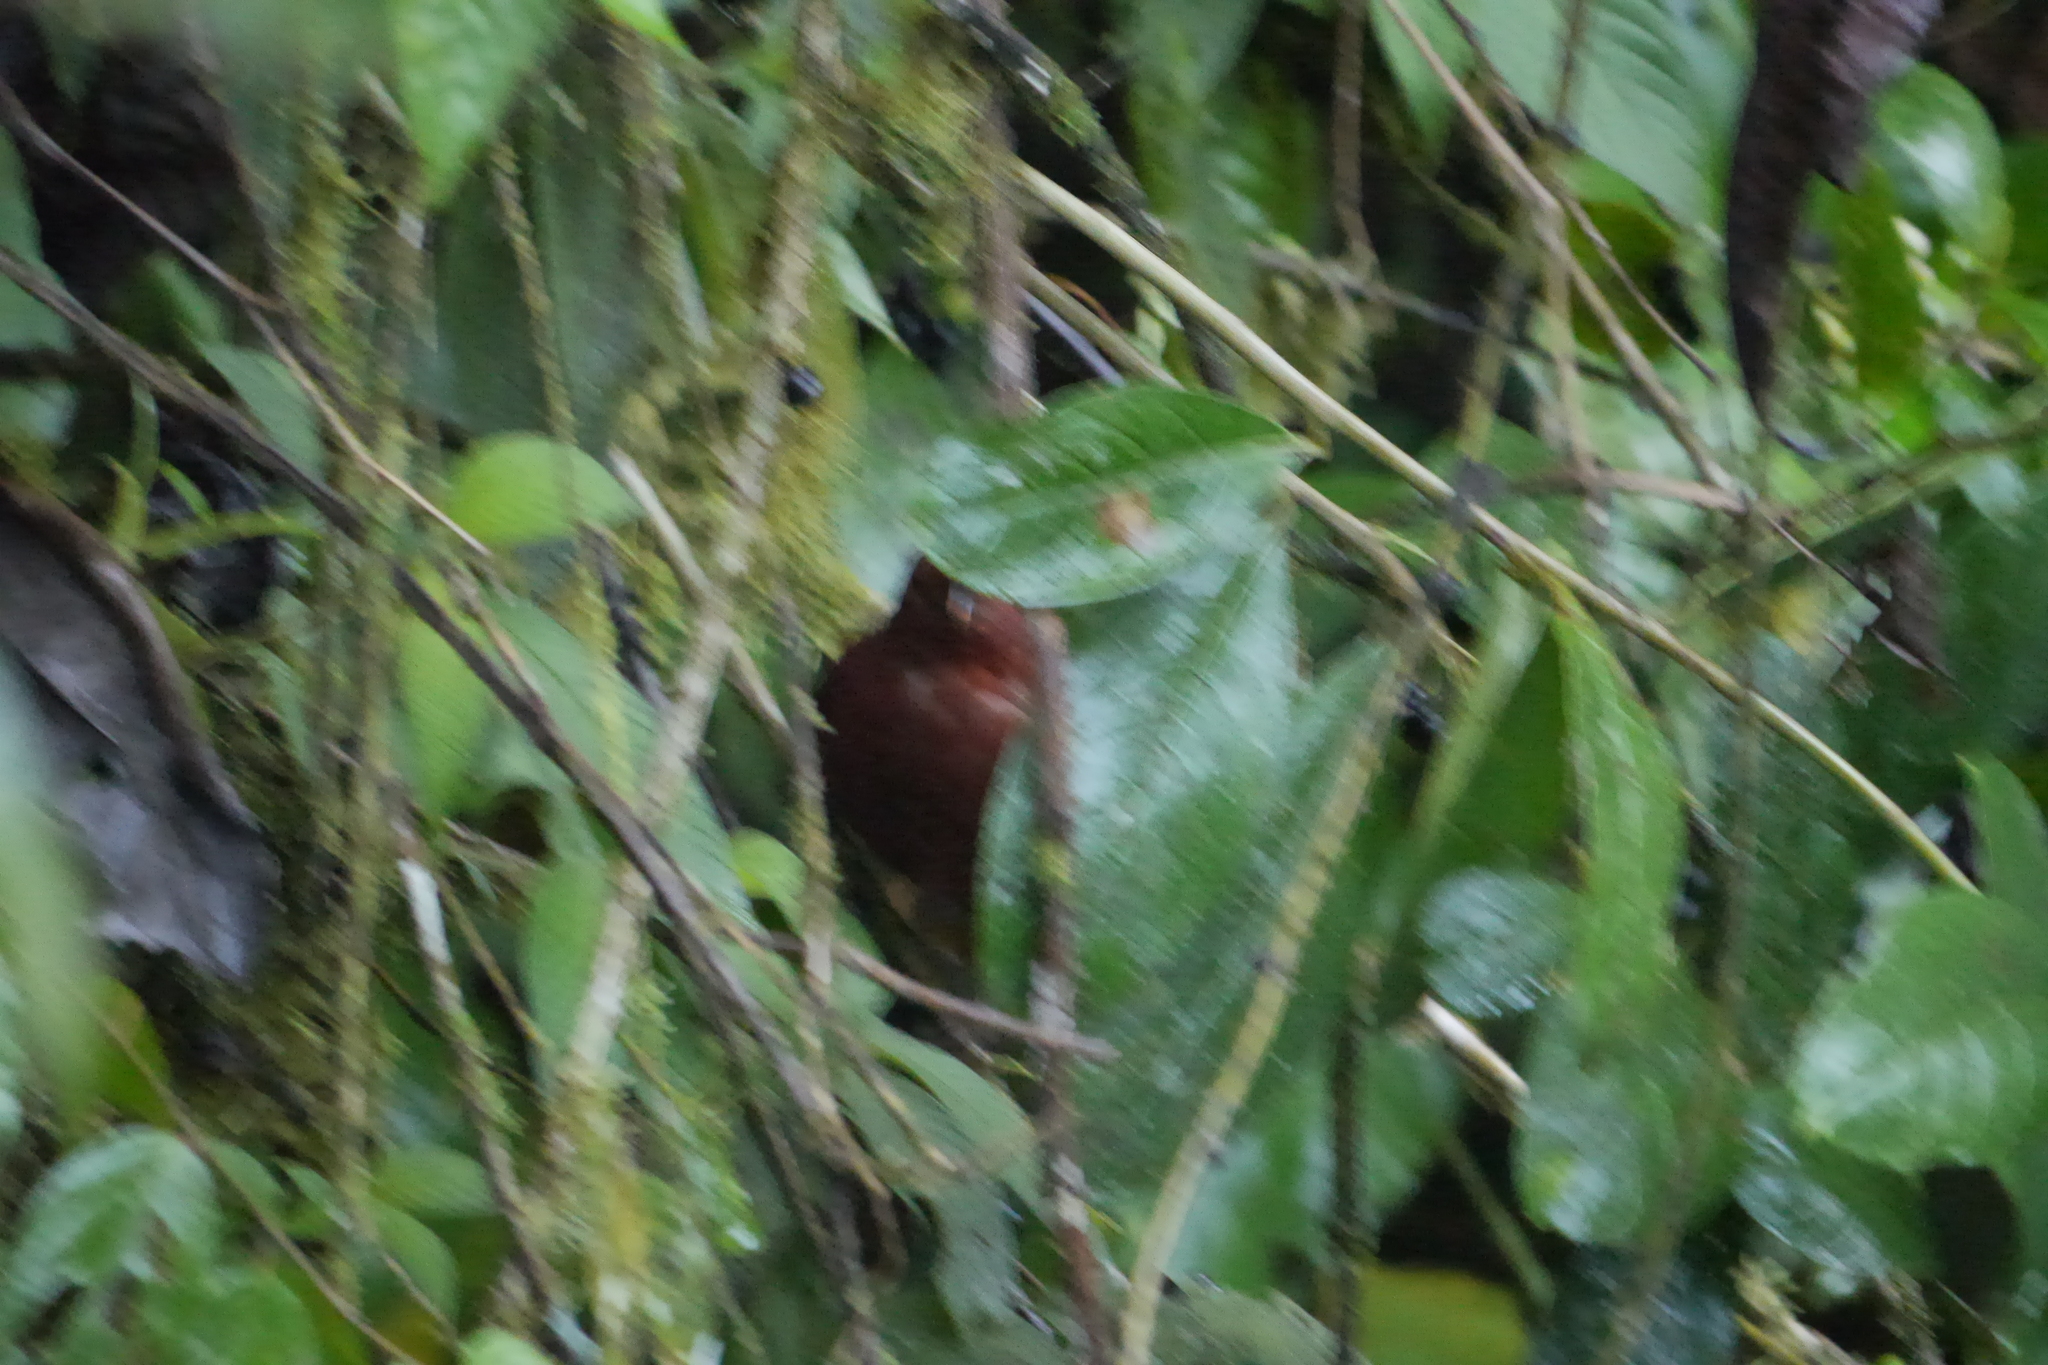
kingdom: Animalia
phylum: Chordata
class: Aves
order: Passeriformes
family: Cotingidae
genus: Rupicola
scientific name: Rupicola peruvianus
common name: Andean cock-of-the-rock
